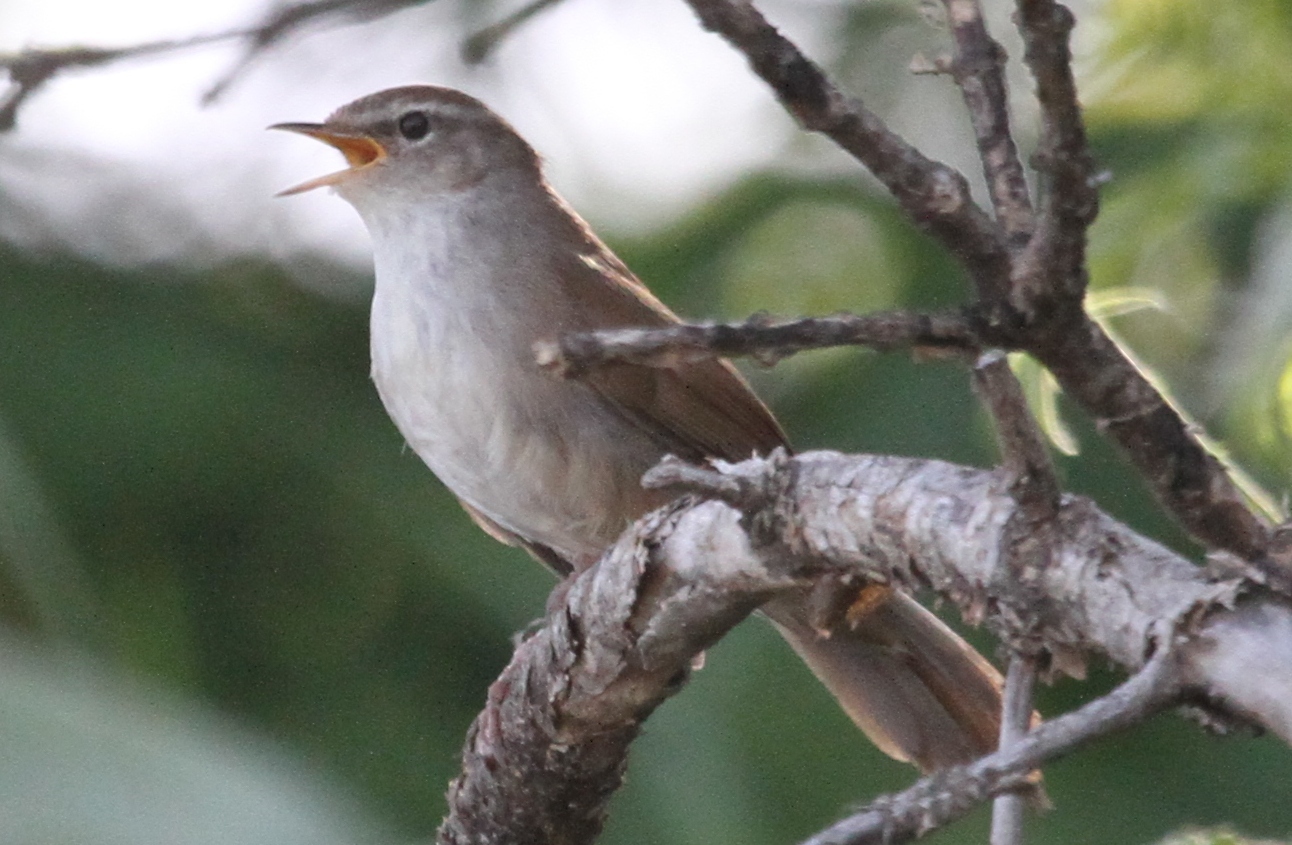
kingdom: Animalia
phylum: Chordata
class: Aves
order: Passeriformes
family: Cettiidae
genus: Cettia
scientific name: Cettia cetti
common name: Cetti's warbler
